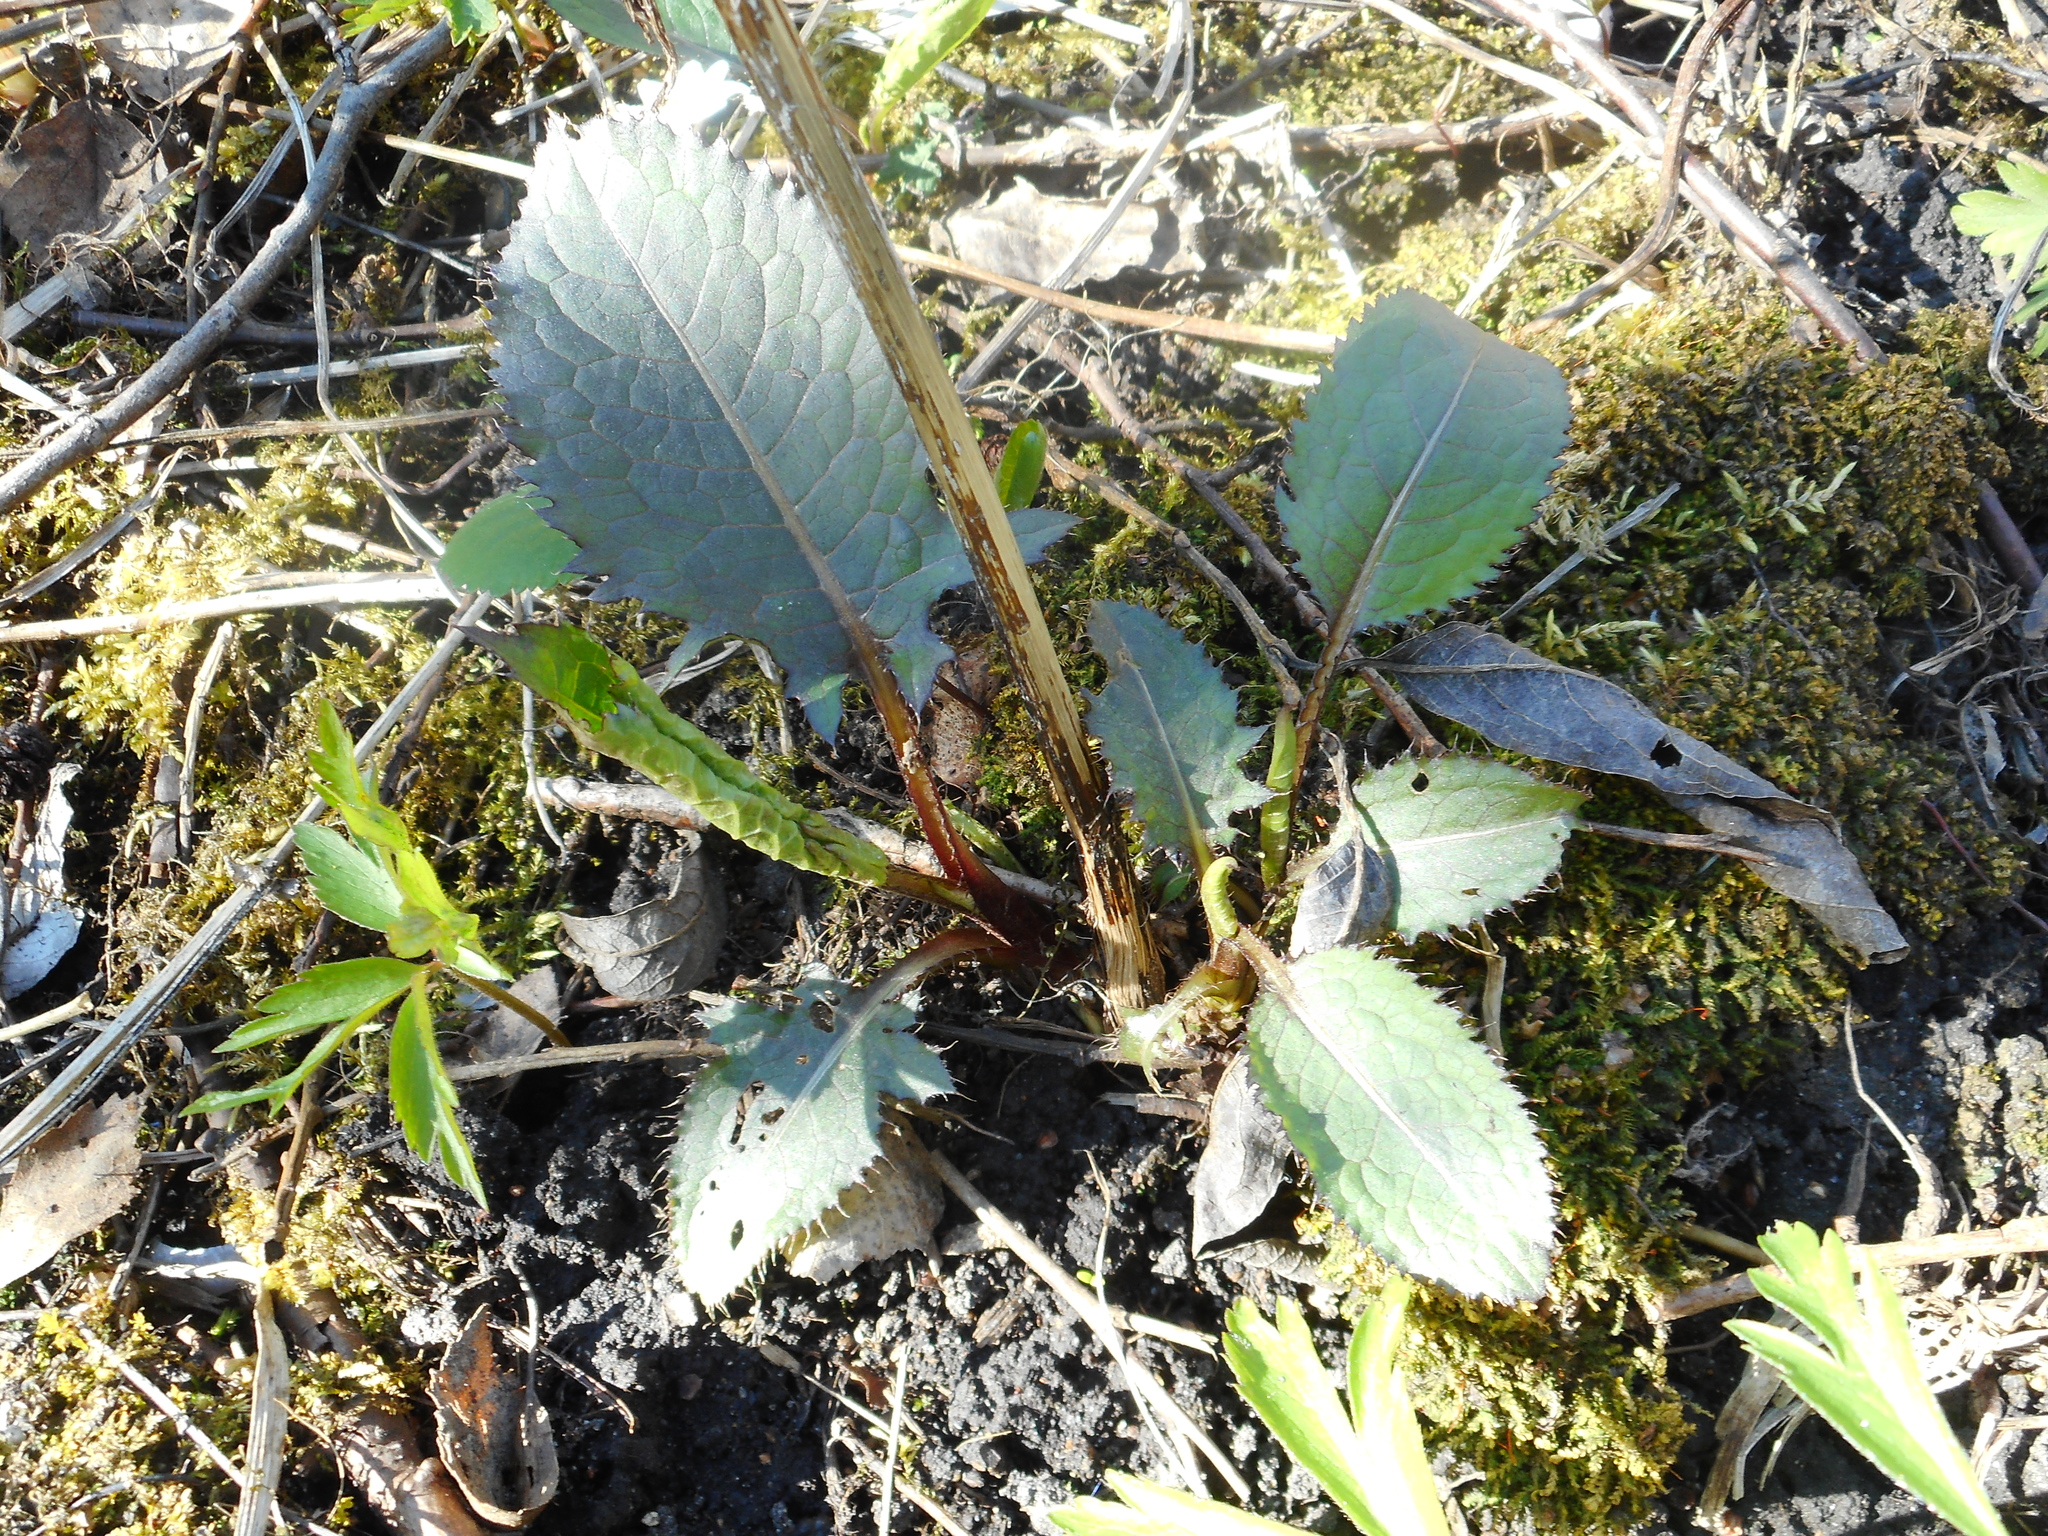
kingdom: Plantae
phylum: Tracheophyta
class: Magnoliopsida
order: Asterales
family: Asteraceae
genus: Cirsium
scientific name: Cirsium oleraceum
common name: Cabbage thistle
